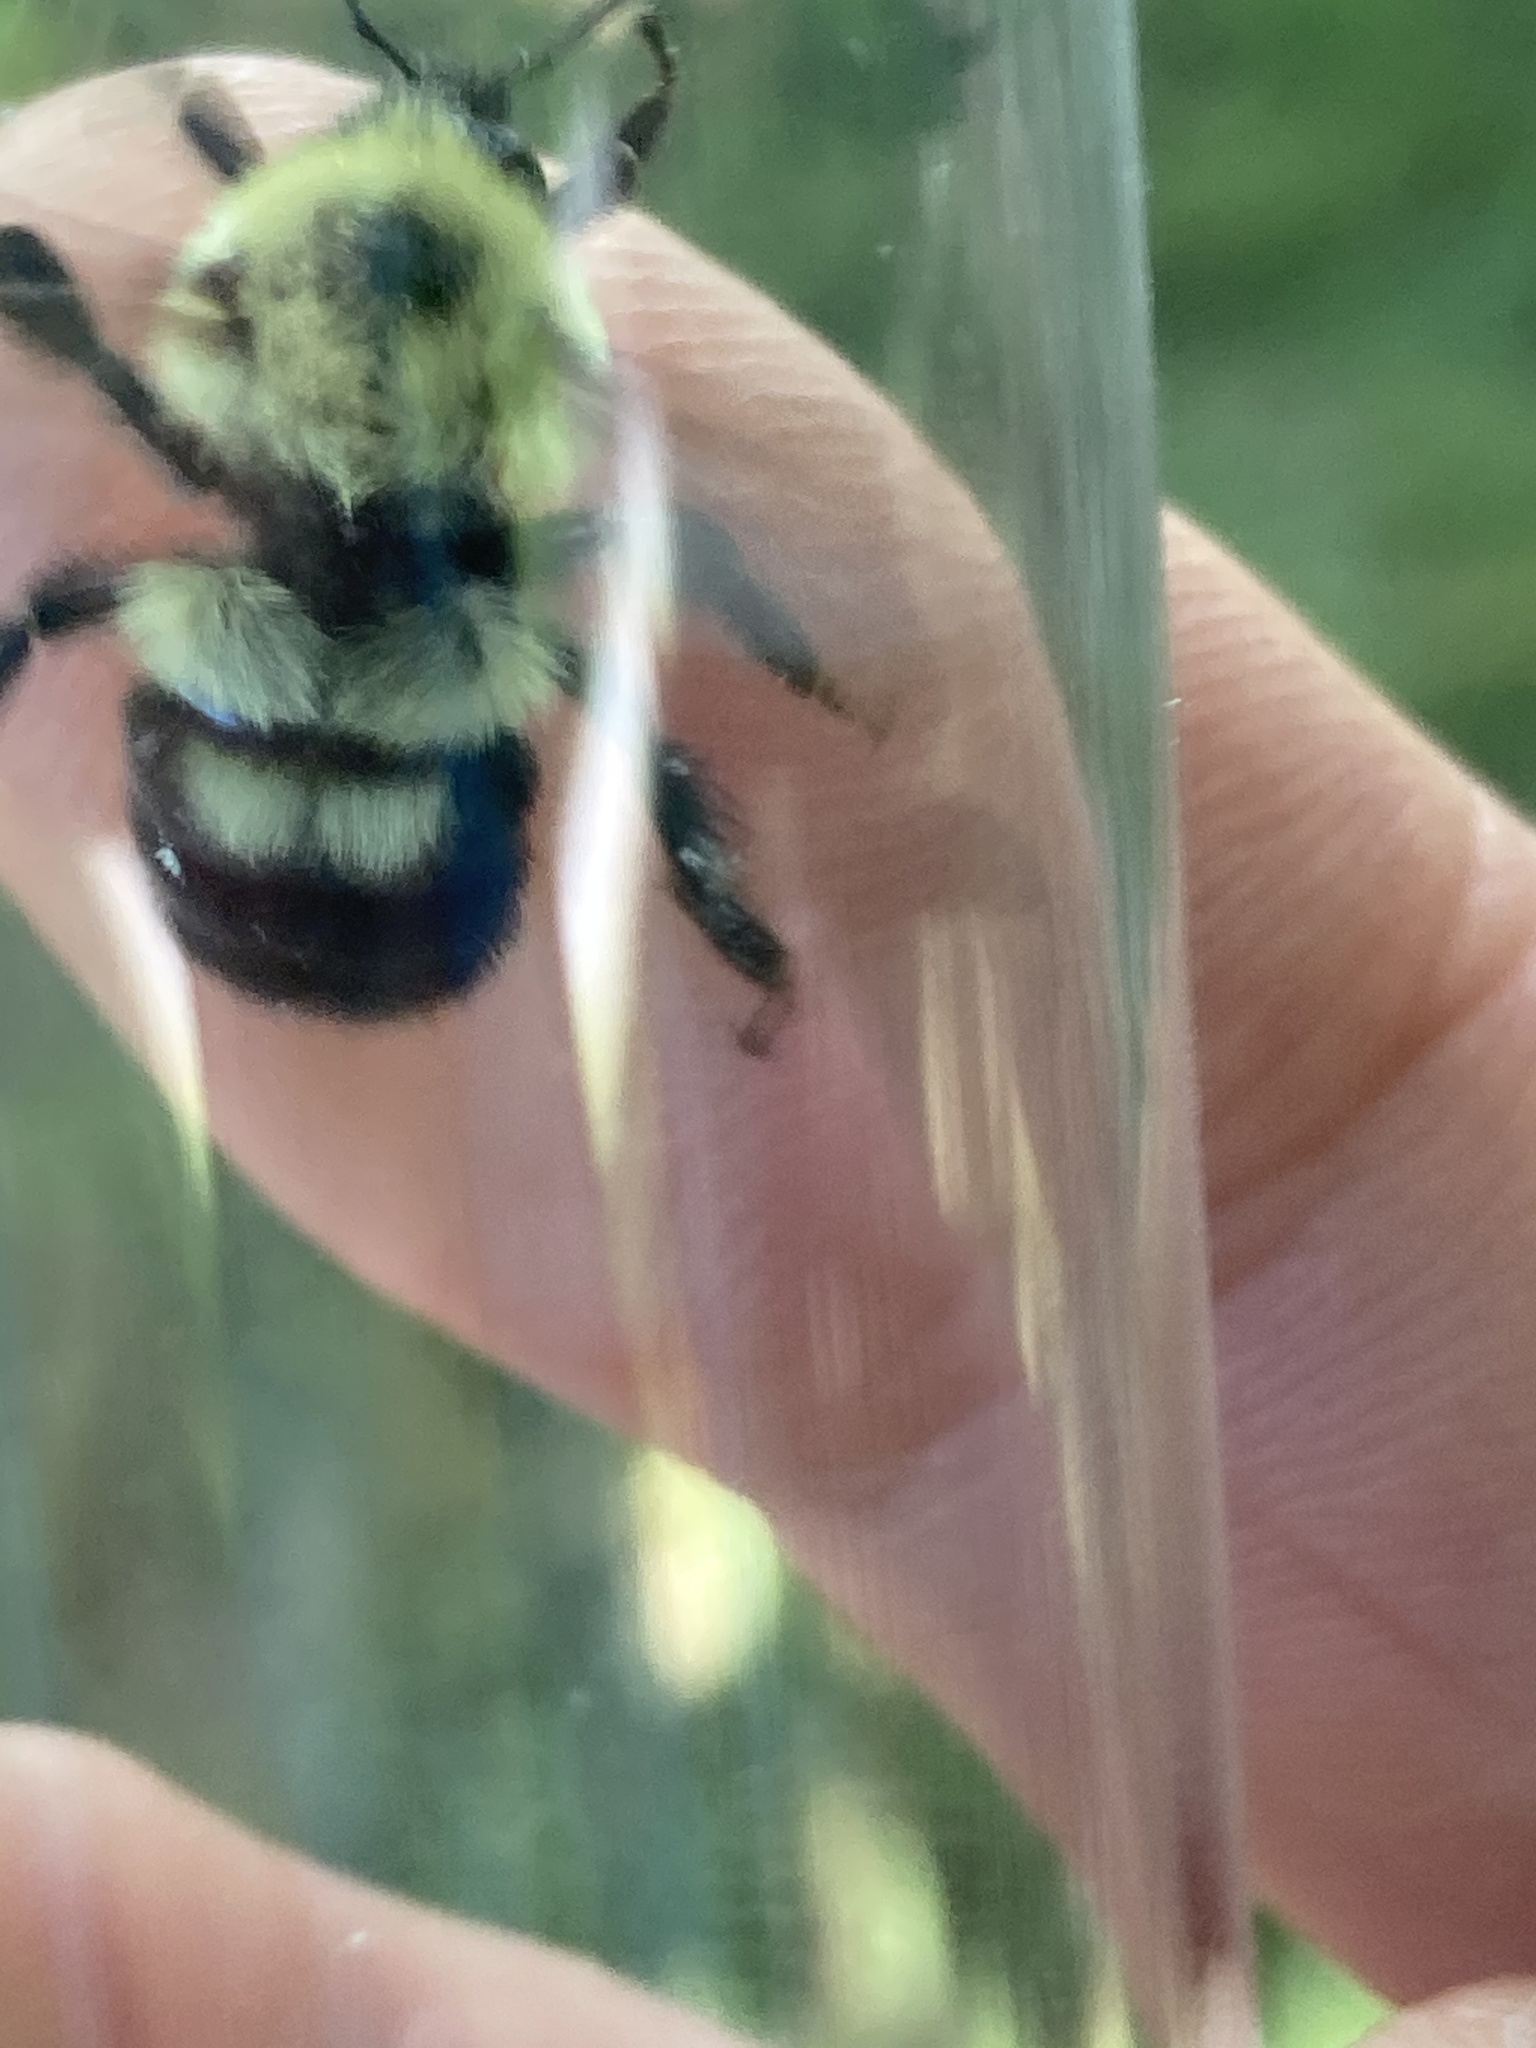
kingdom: Animalia
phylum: Arthropoda
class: Insecta
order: Hymenoptera
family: Apidae
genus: Bombus
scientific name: Bombus bimaculatus
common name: Two-spotted bumble bee
